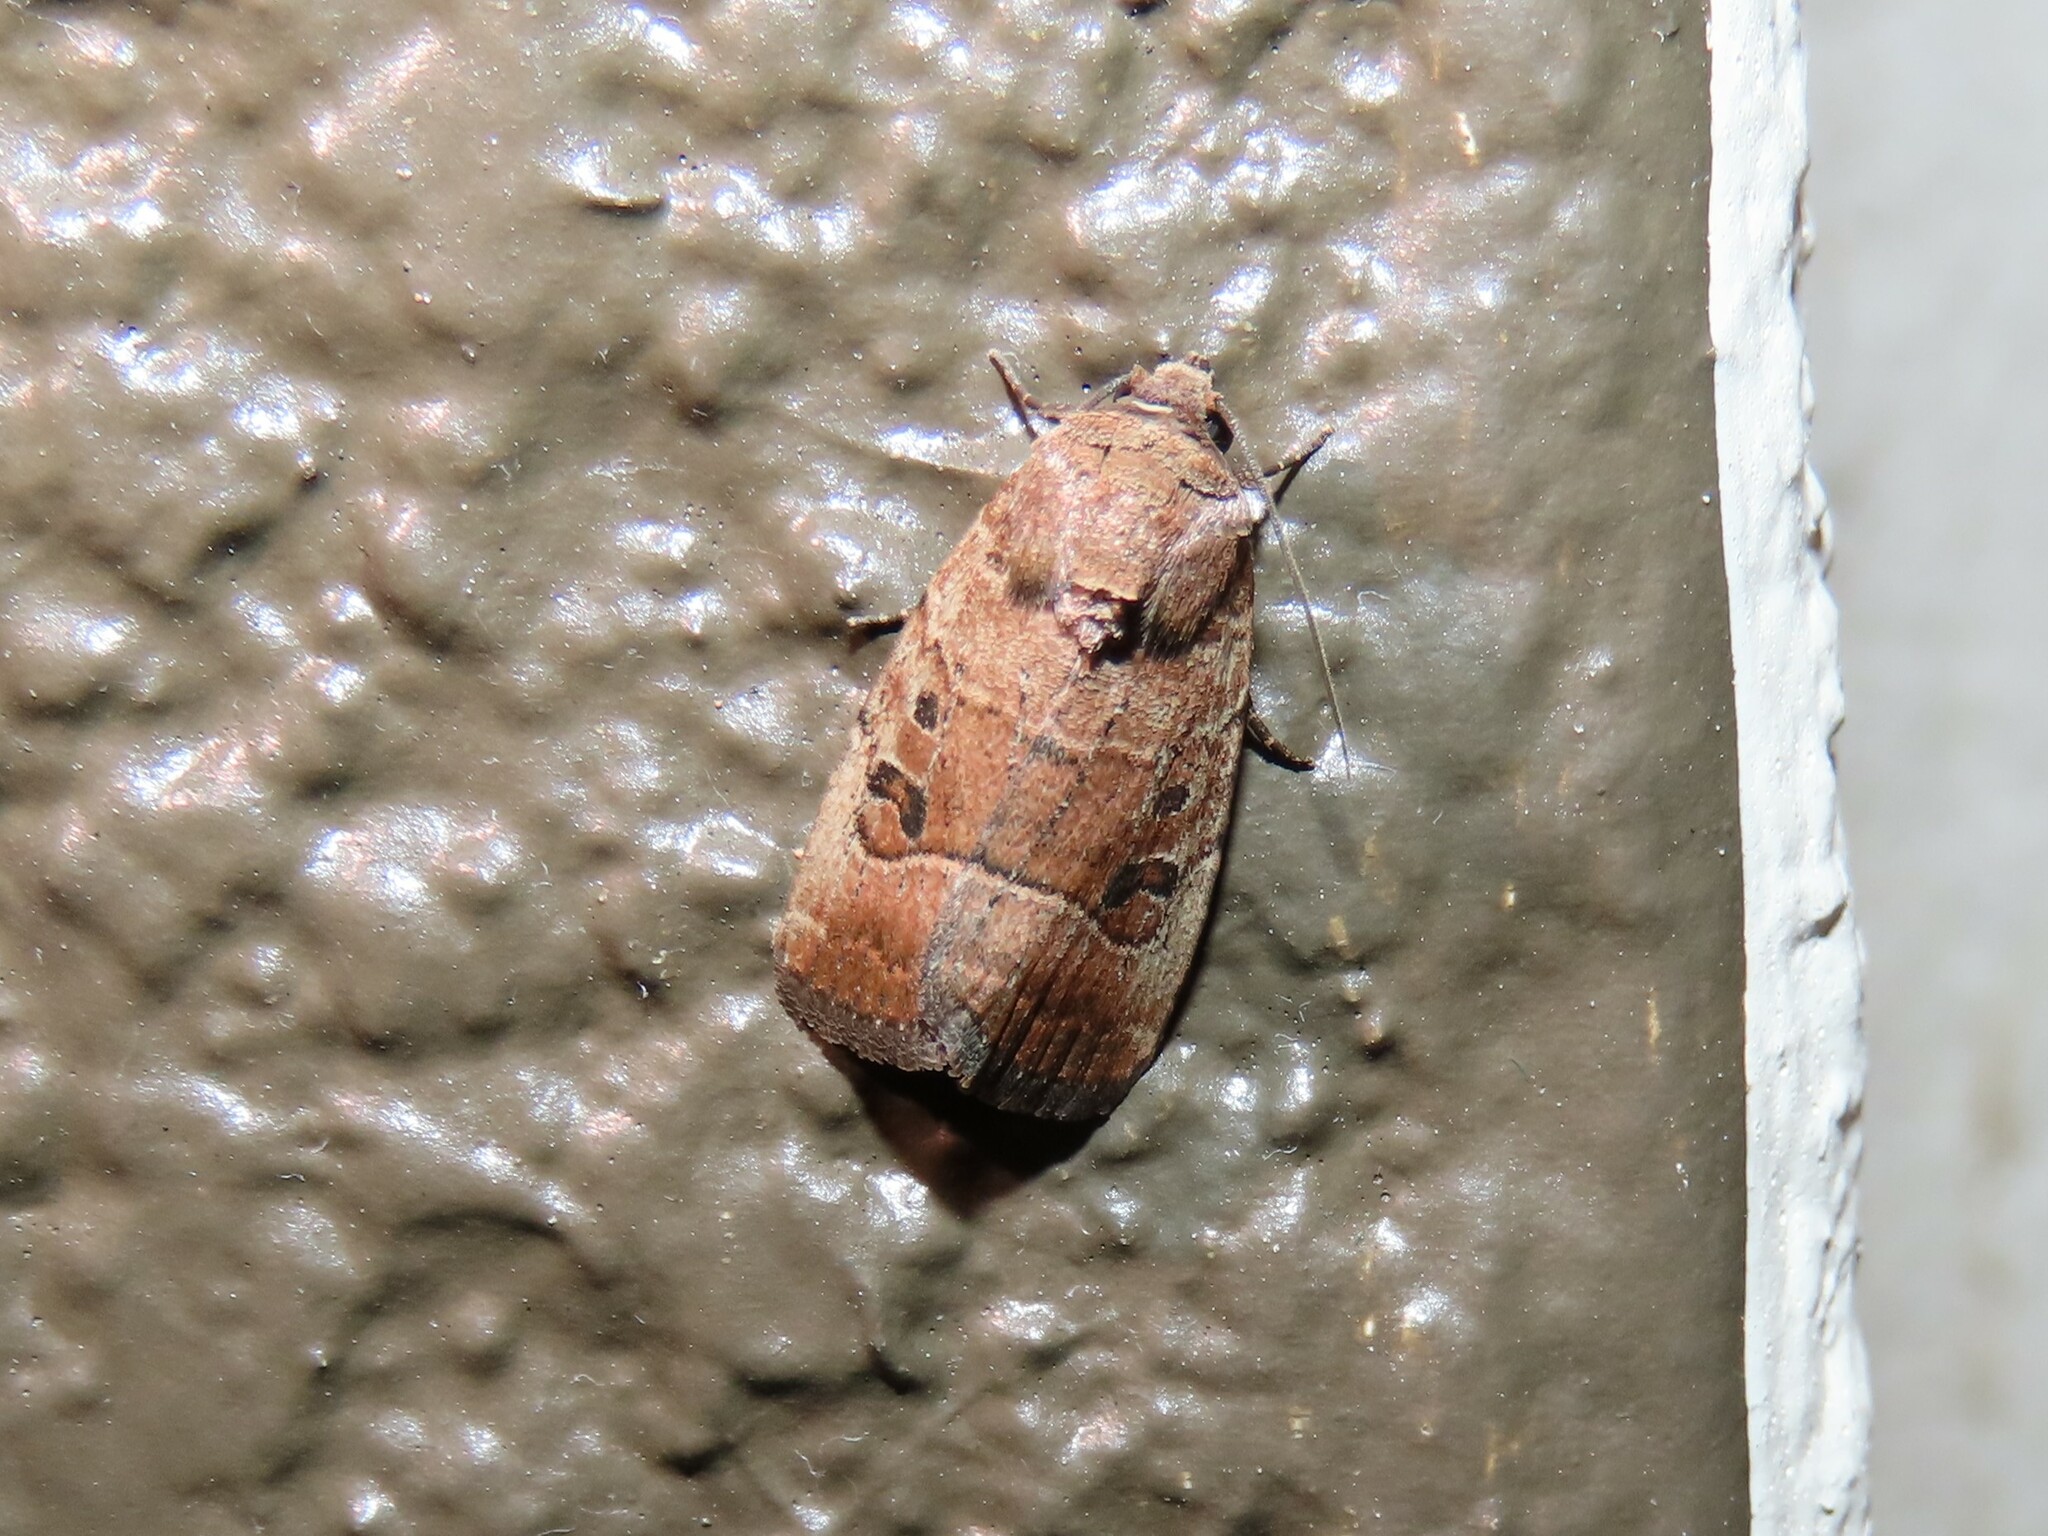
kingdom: Animalia
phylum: Arthropoda
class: Insecta
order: Lepidoptera
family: Noctuidae
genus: Elaphria
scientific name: Elaphria fuscimacula
